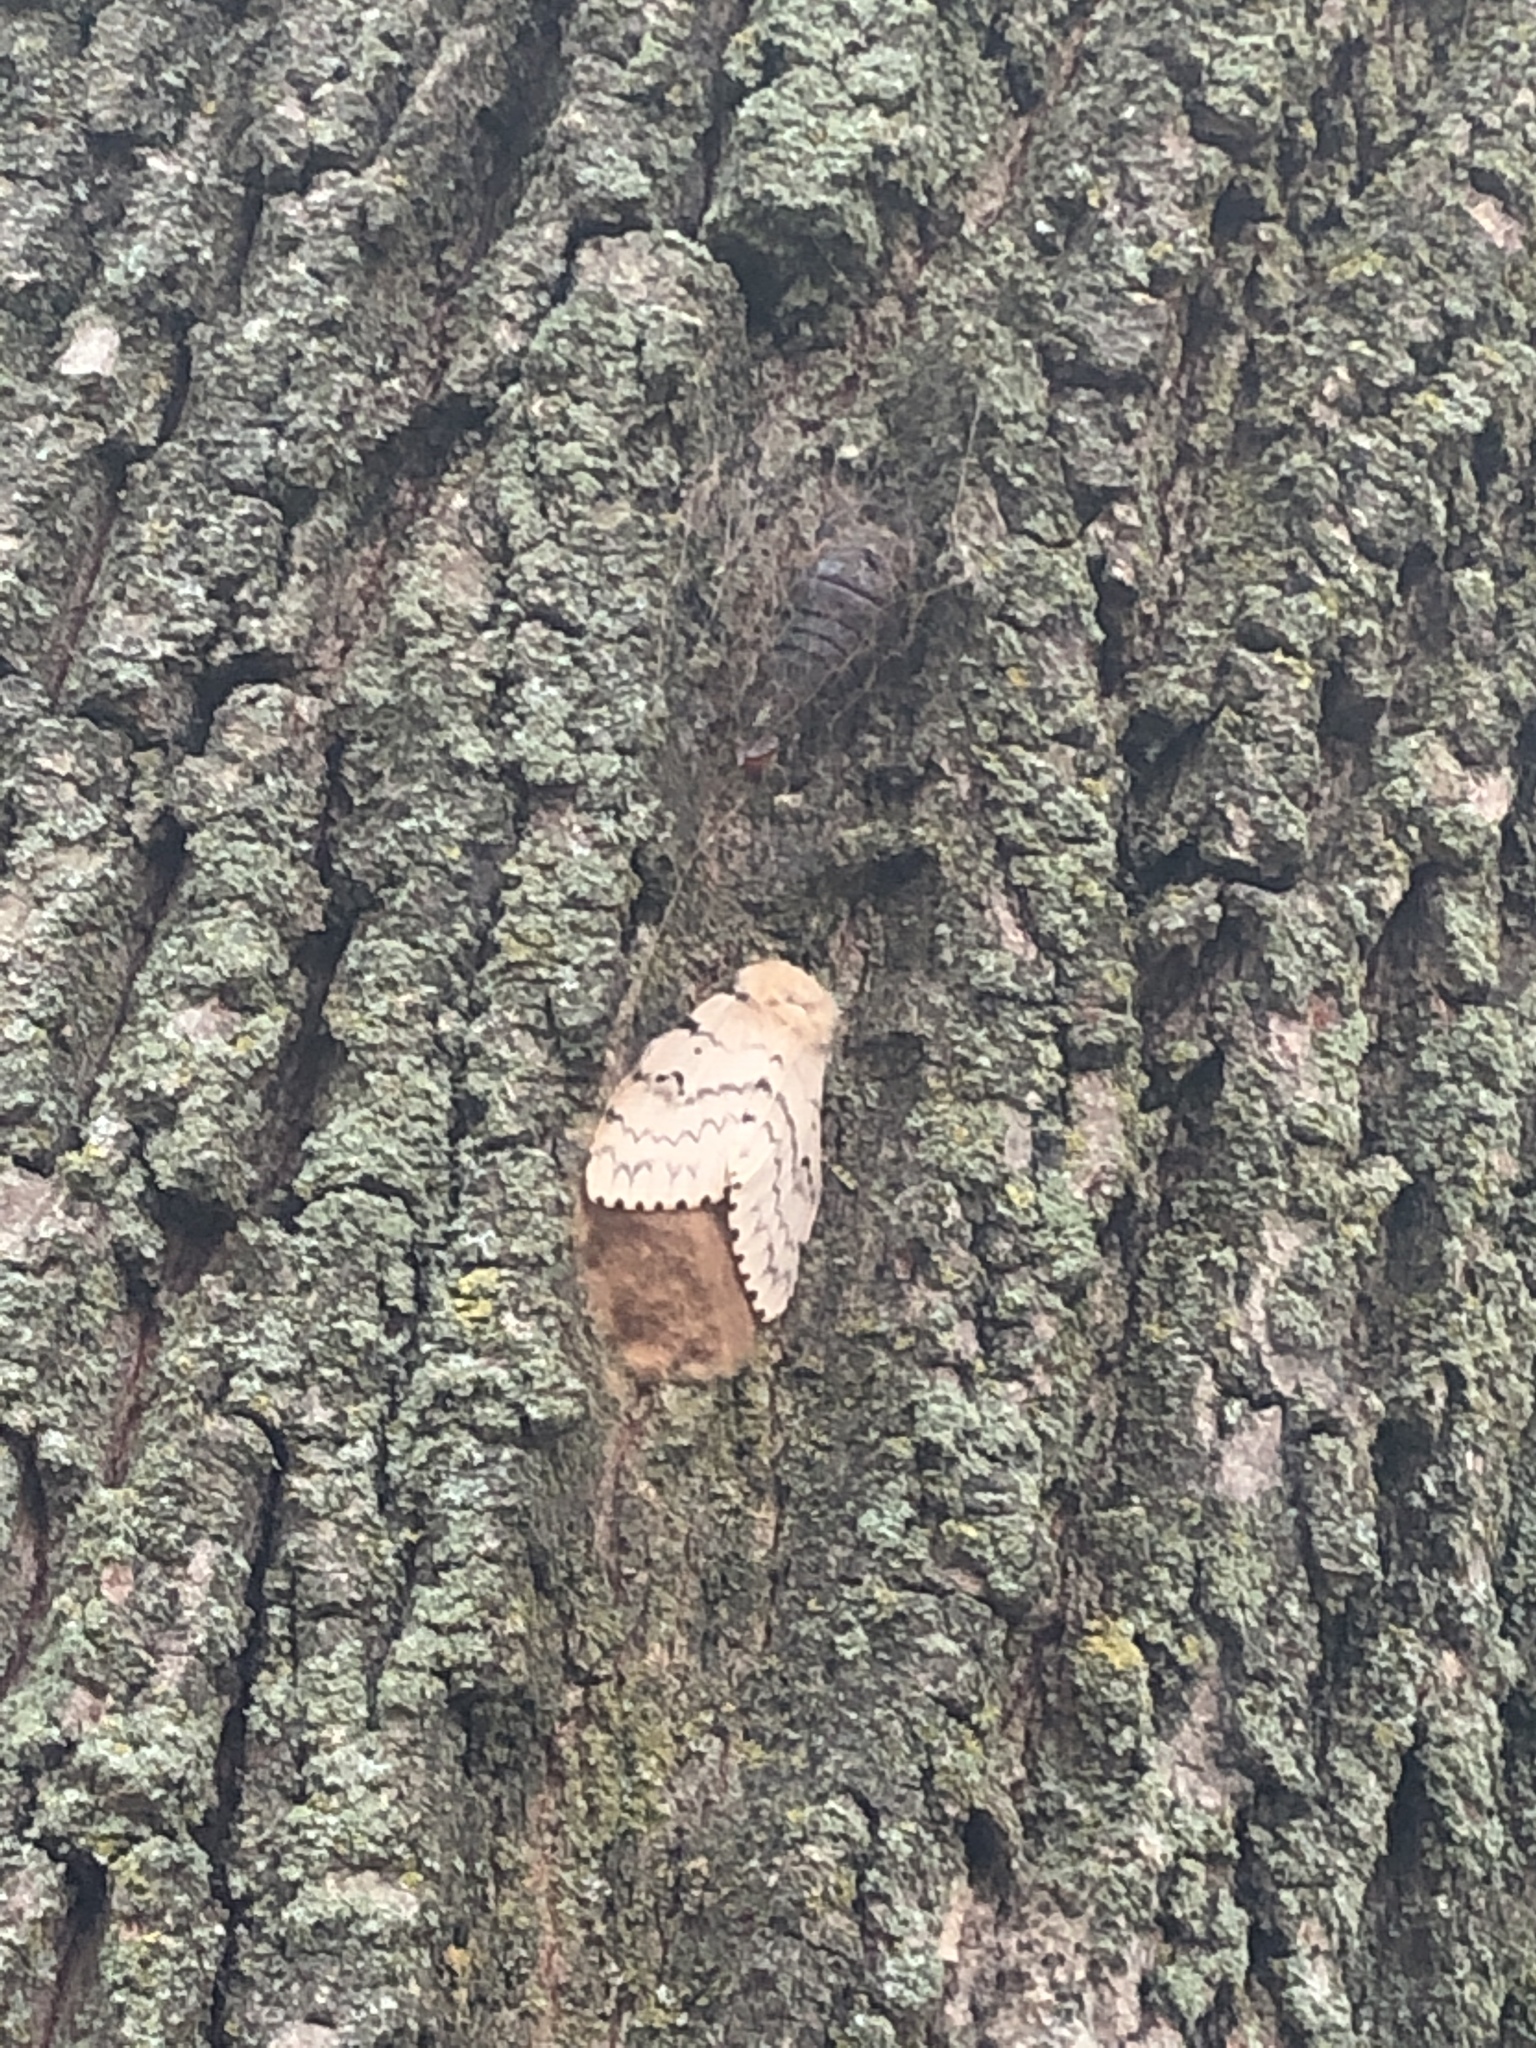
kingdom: Animalia
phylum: Arthropoda
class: Insecta
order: Lepidoptera
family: Erebidae
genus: Lymantria
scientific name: Lymantria dispar
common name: Gypsy moth
